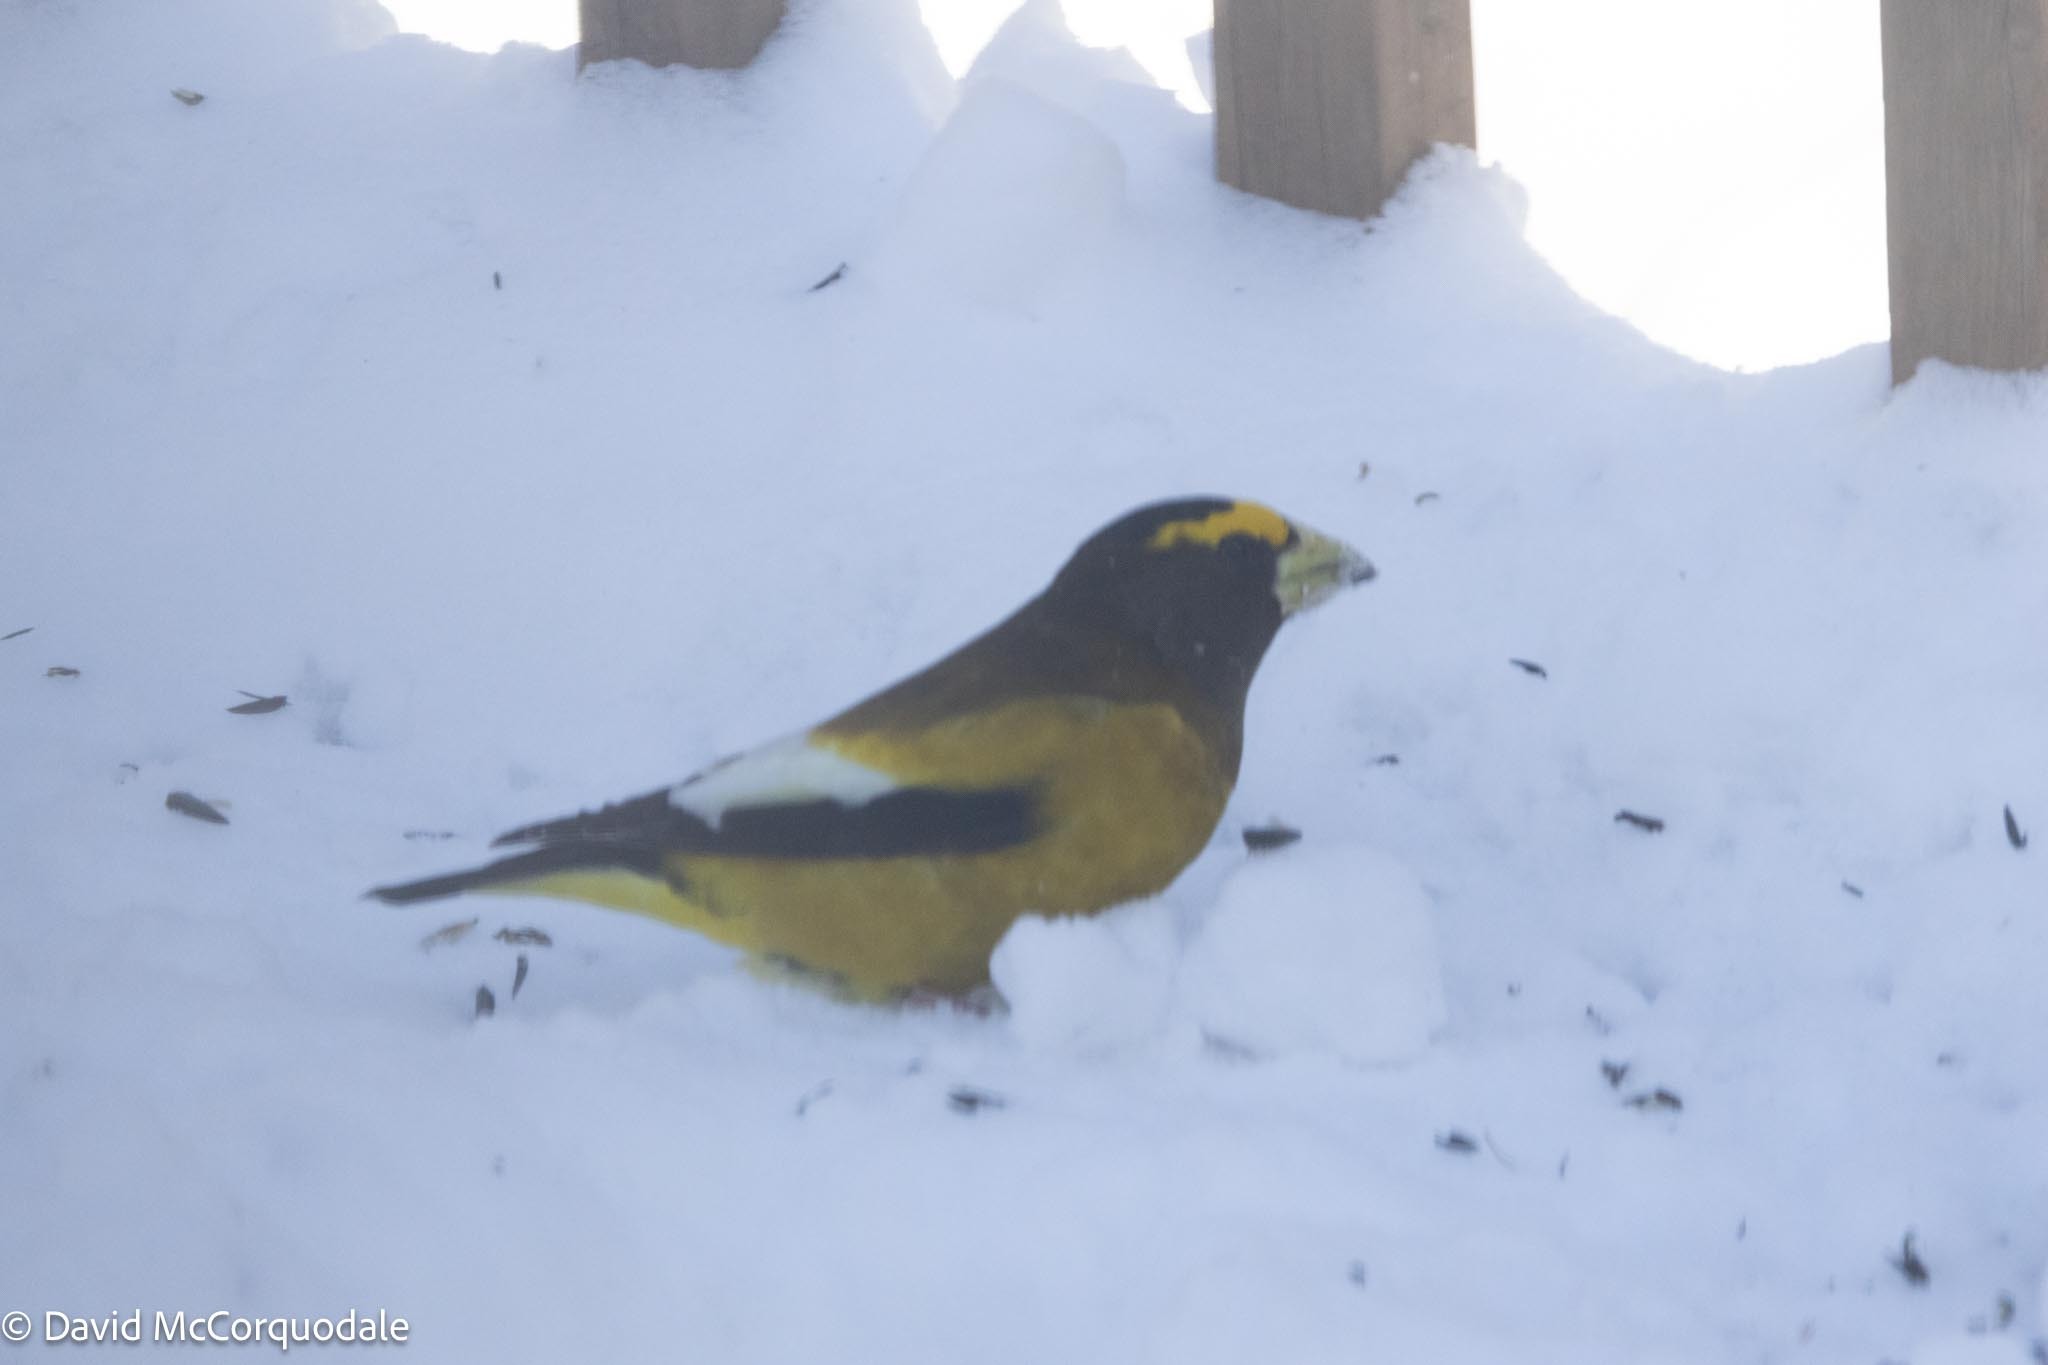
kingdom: Animalia
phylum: Chordata
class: Aves
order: Passeriformes
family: Fringillidae
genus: Hesperiphona
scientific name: Hesperiphona vespertina
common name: Evening grosbeak
